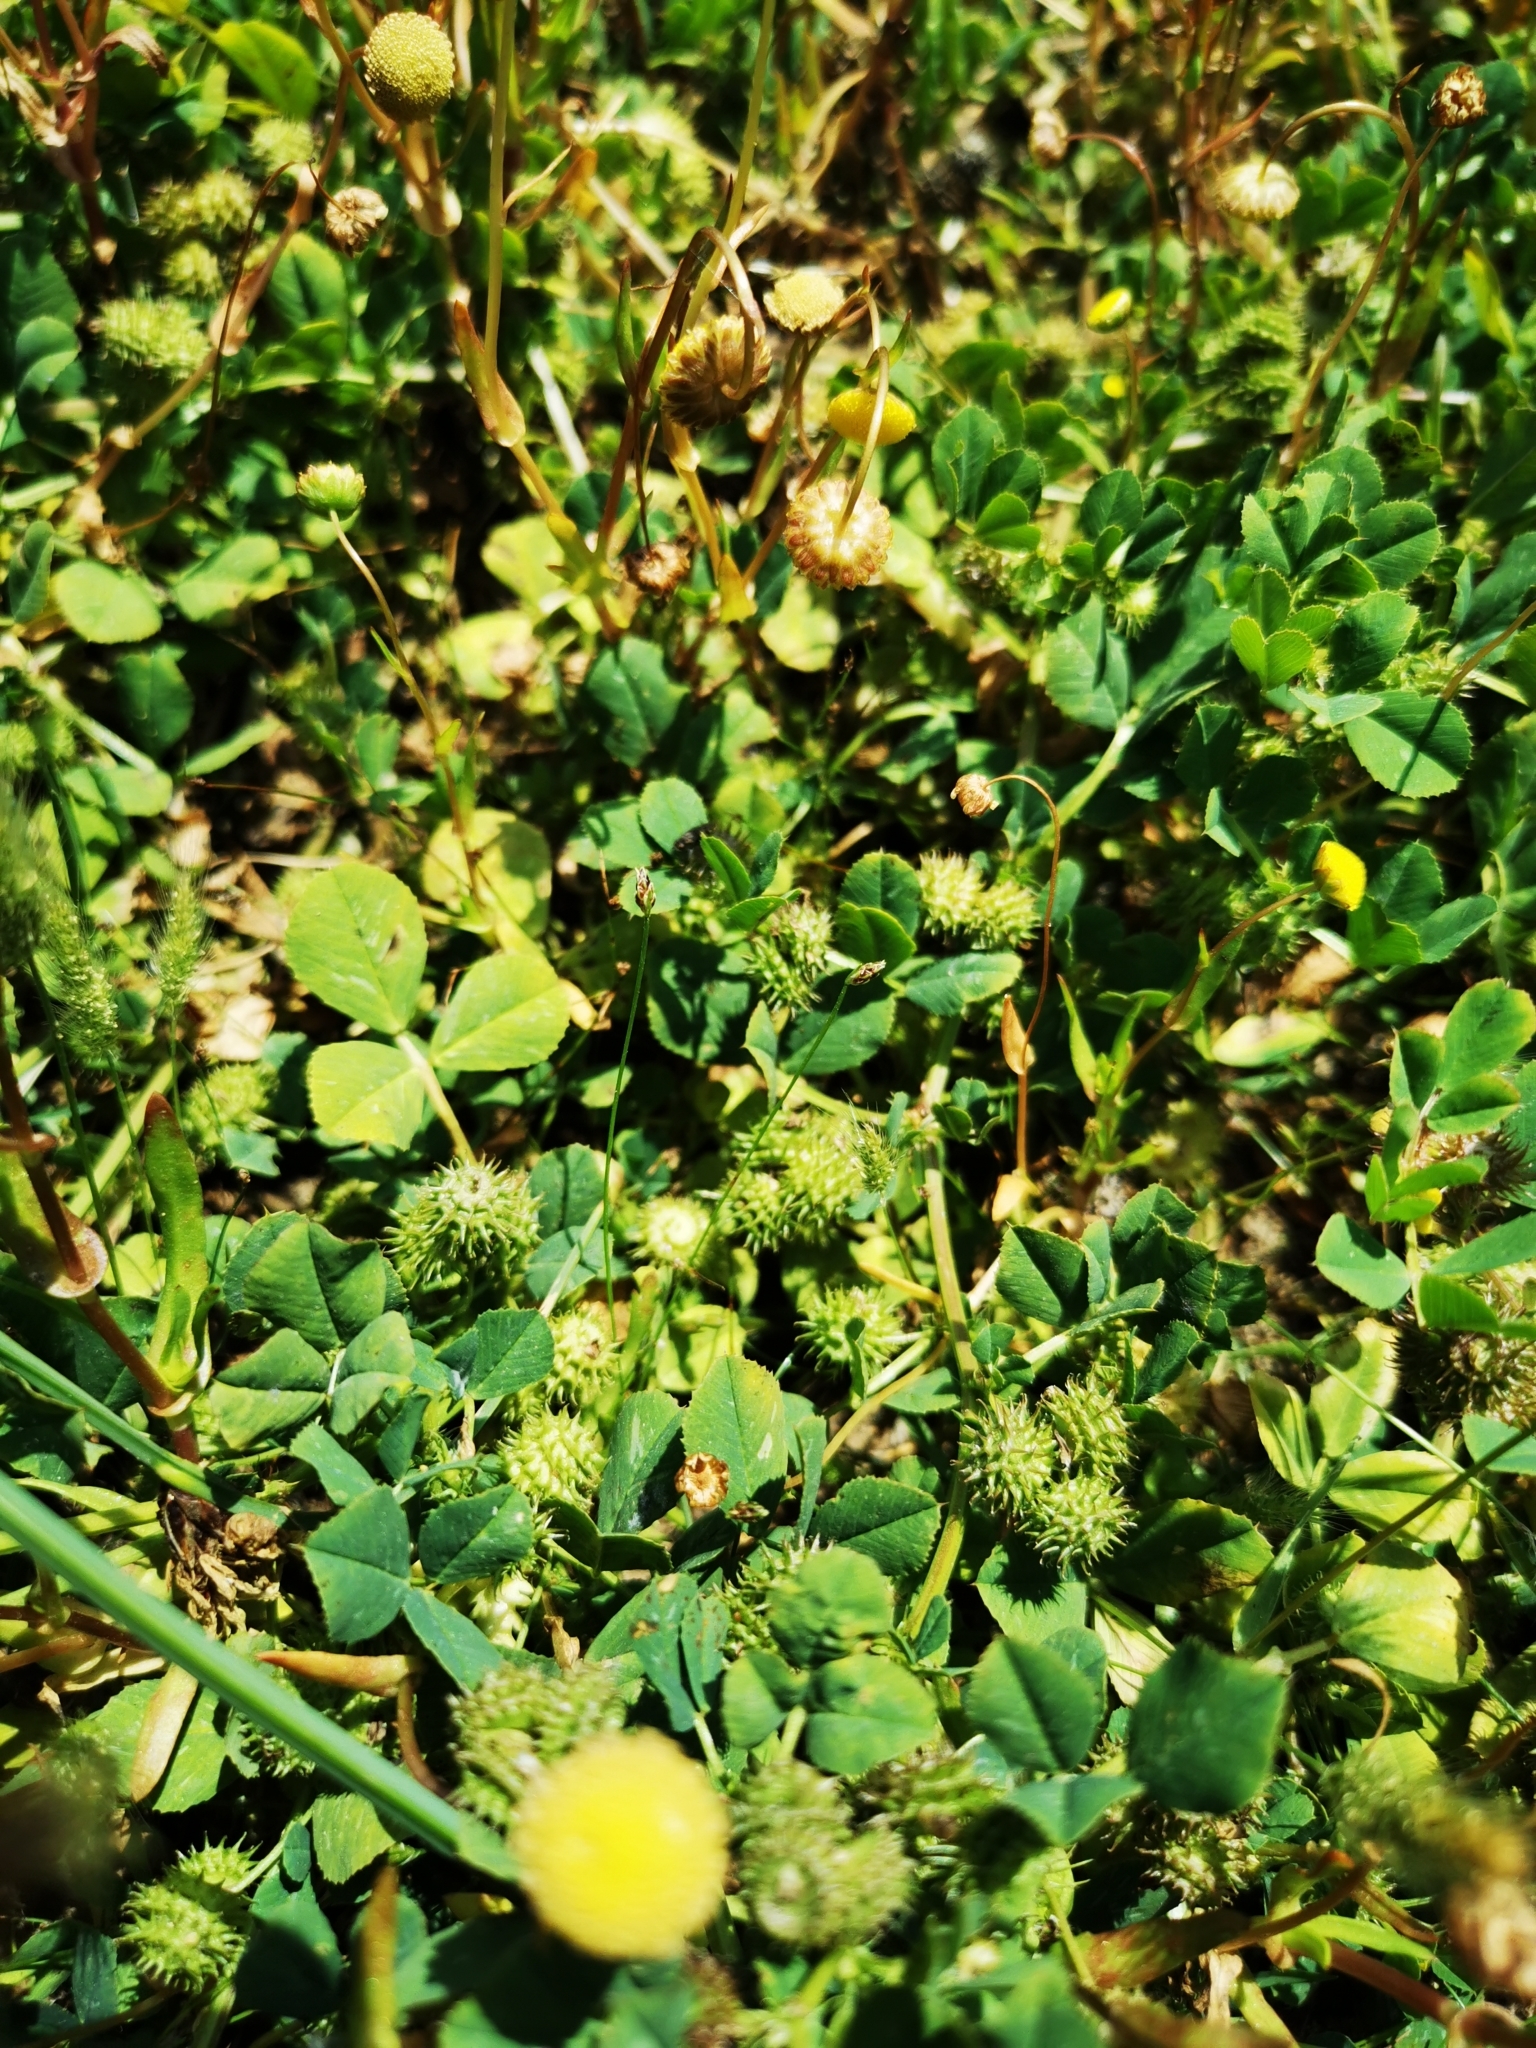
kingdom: Plantae
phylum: Tracheophyta
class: Magnoliopsida
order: Fabales
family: Fabaceae
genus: Medicago
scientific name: Medicago polymorpha
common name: Burclover
